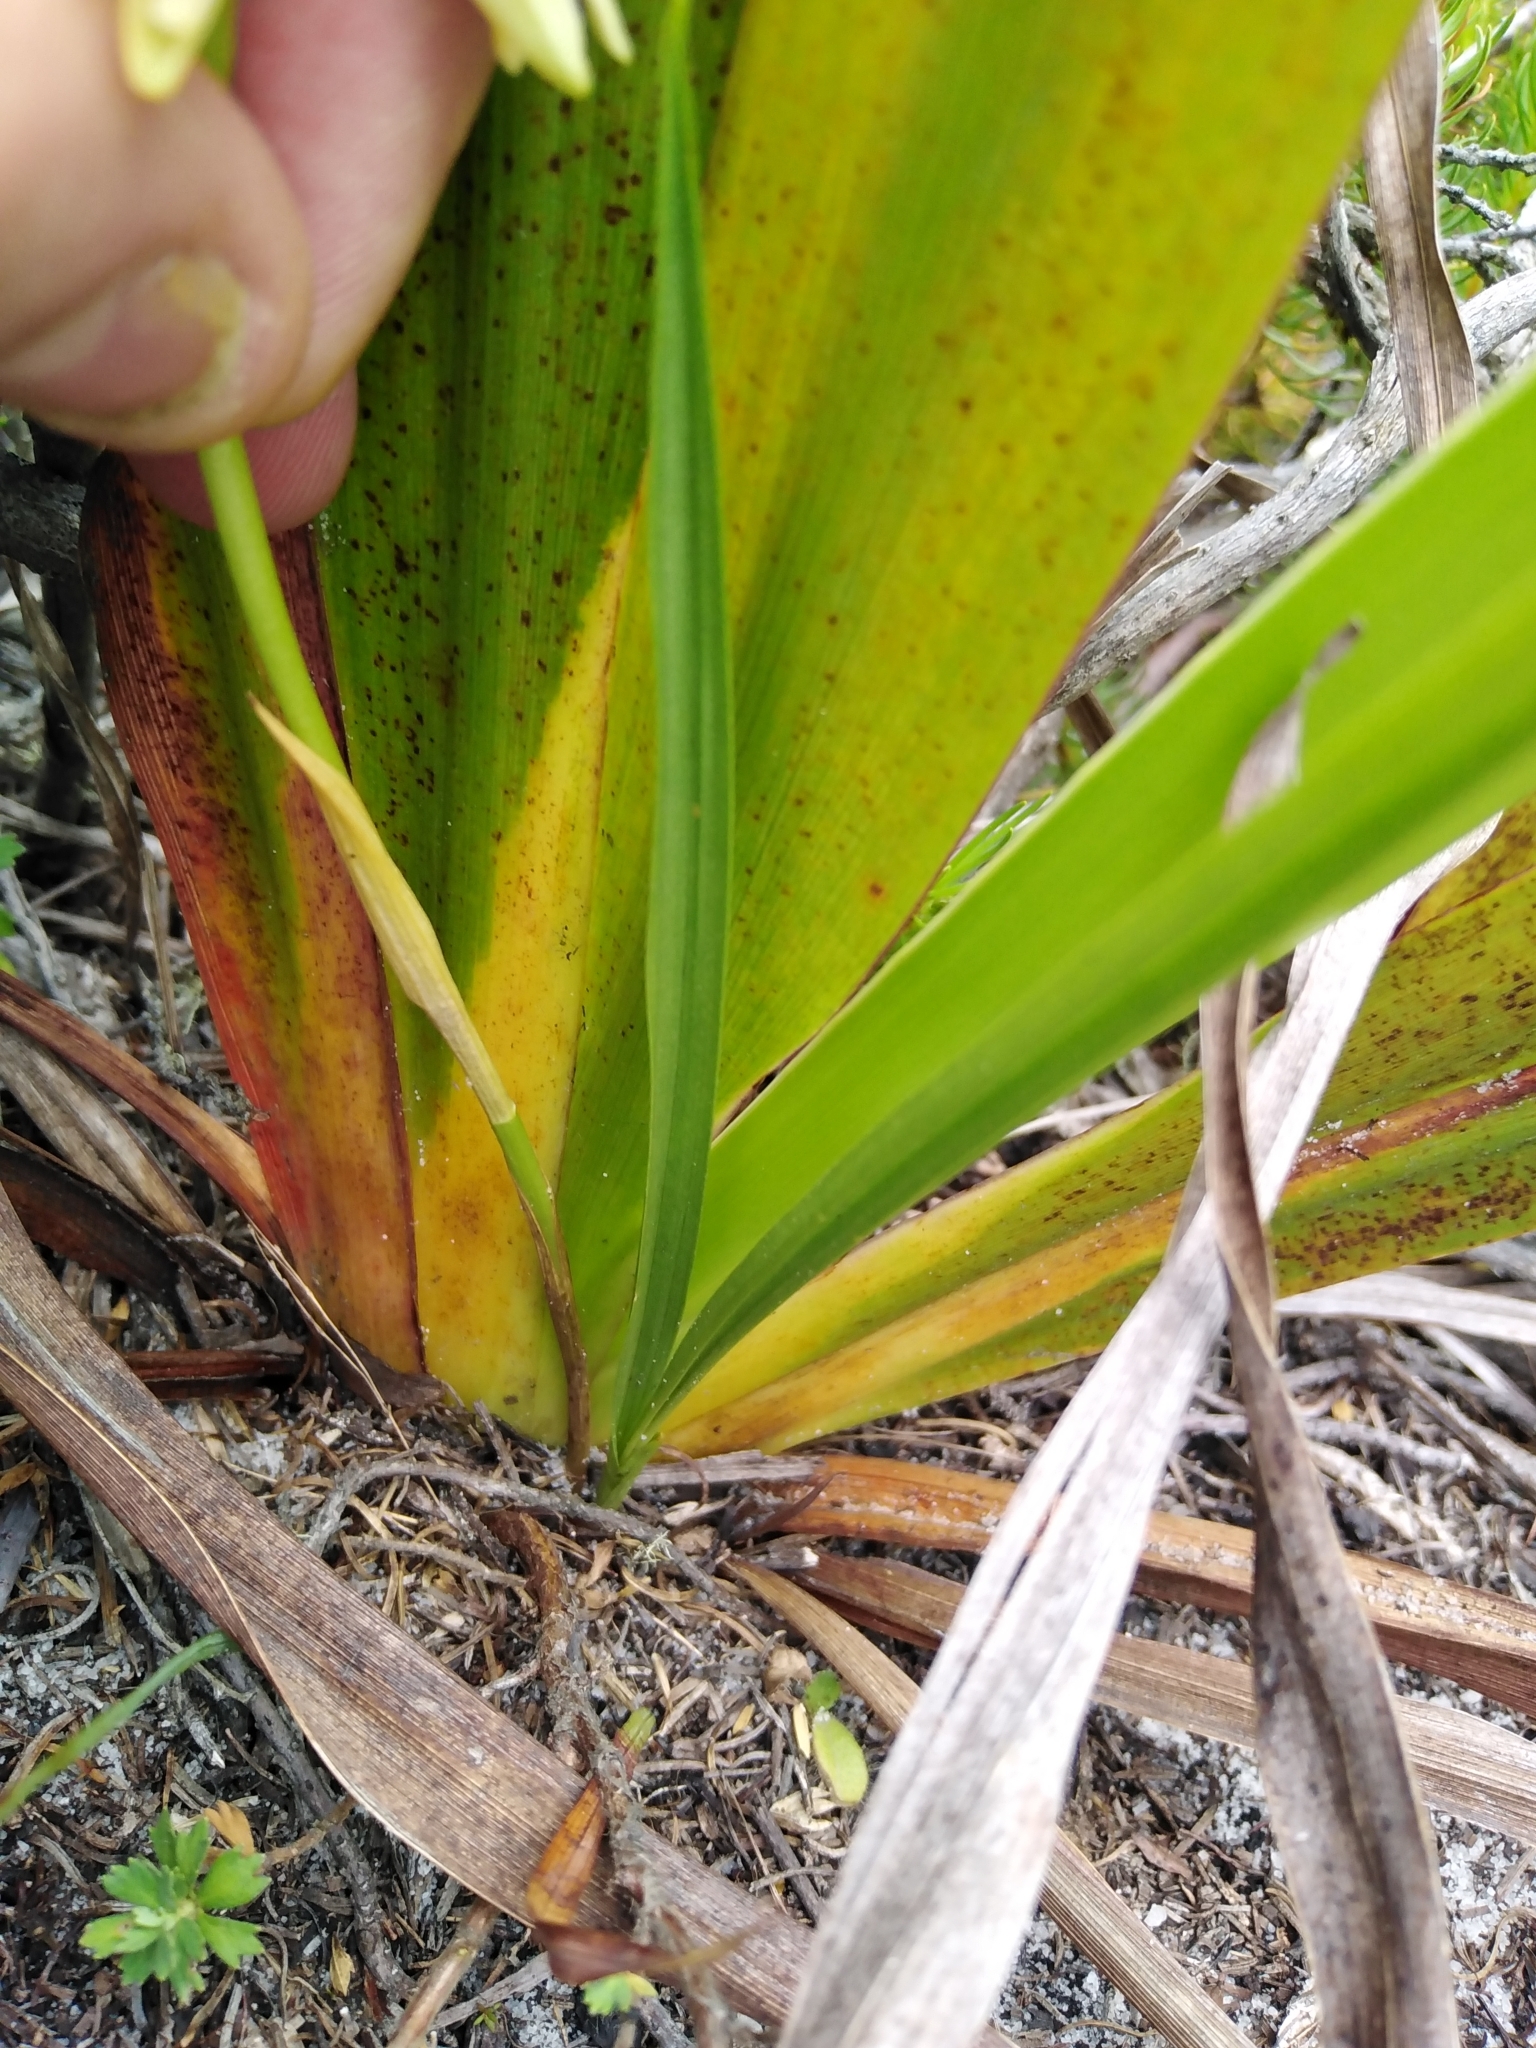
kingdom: Plantae
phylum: Tracheophyta
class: Liliopsida
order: Asparagales
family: Orchidaceae
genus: Eulophia
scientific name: Eulophia aculeata
